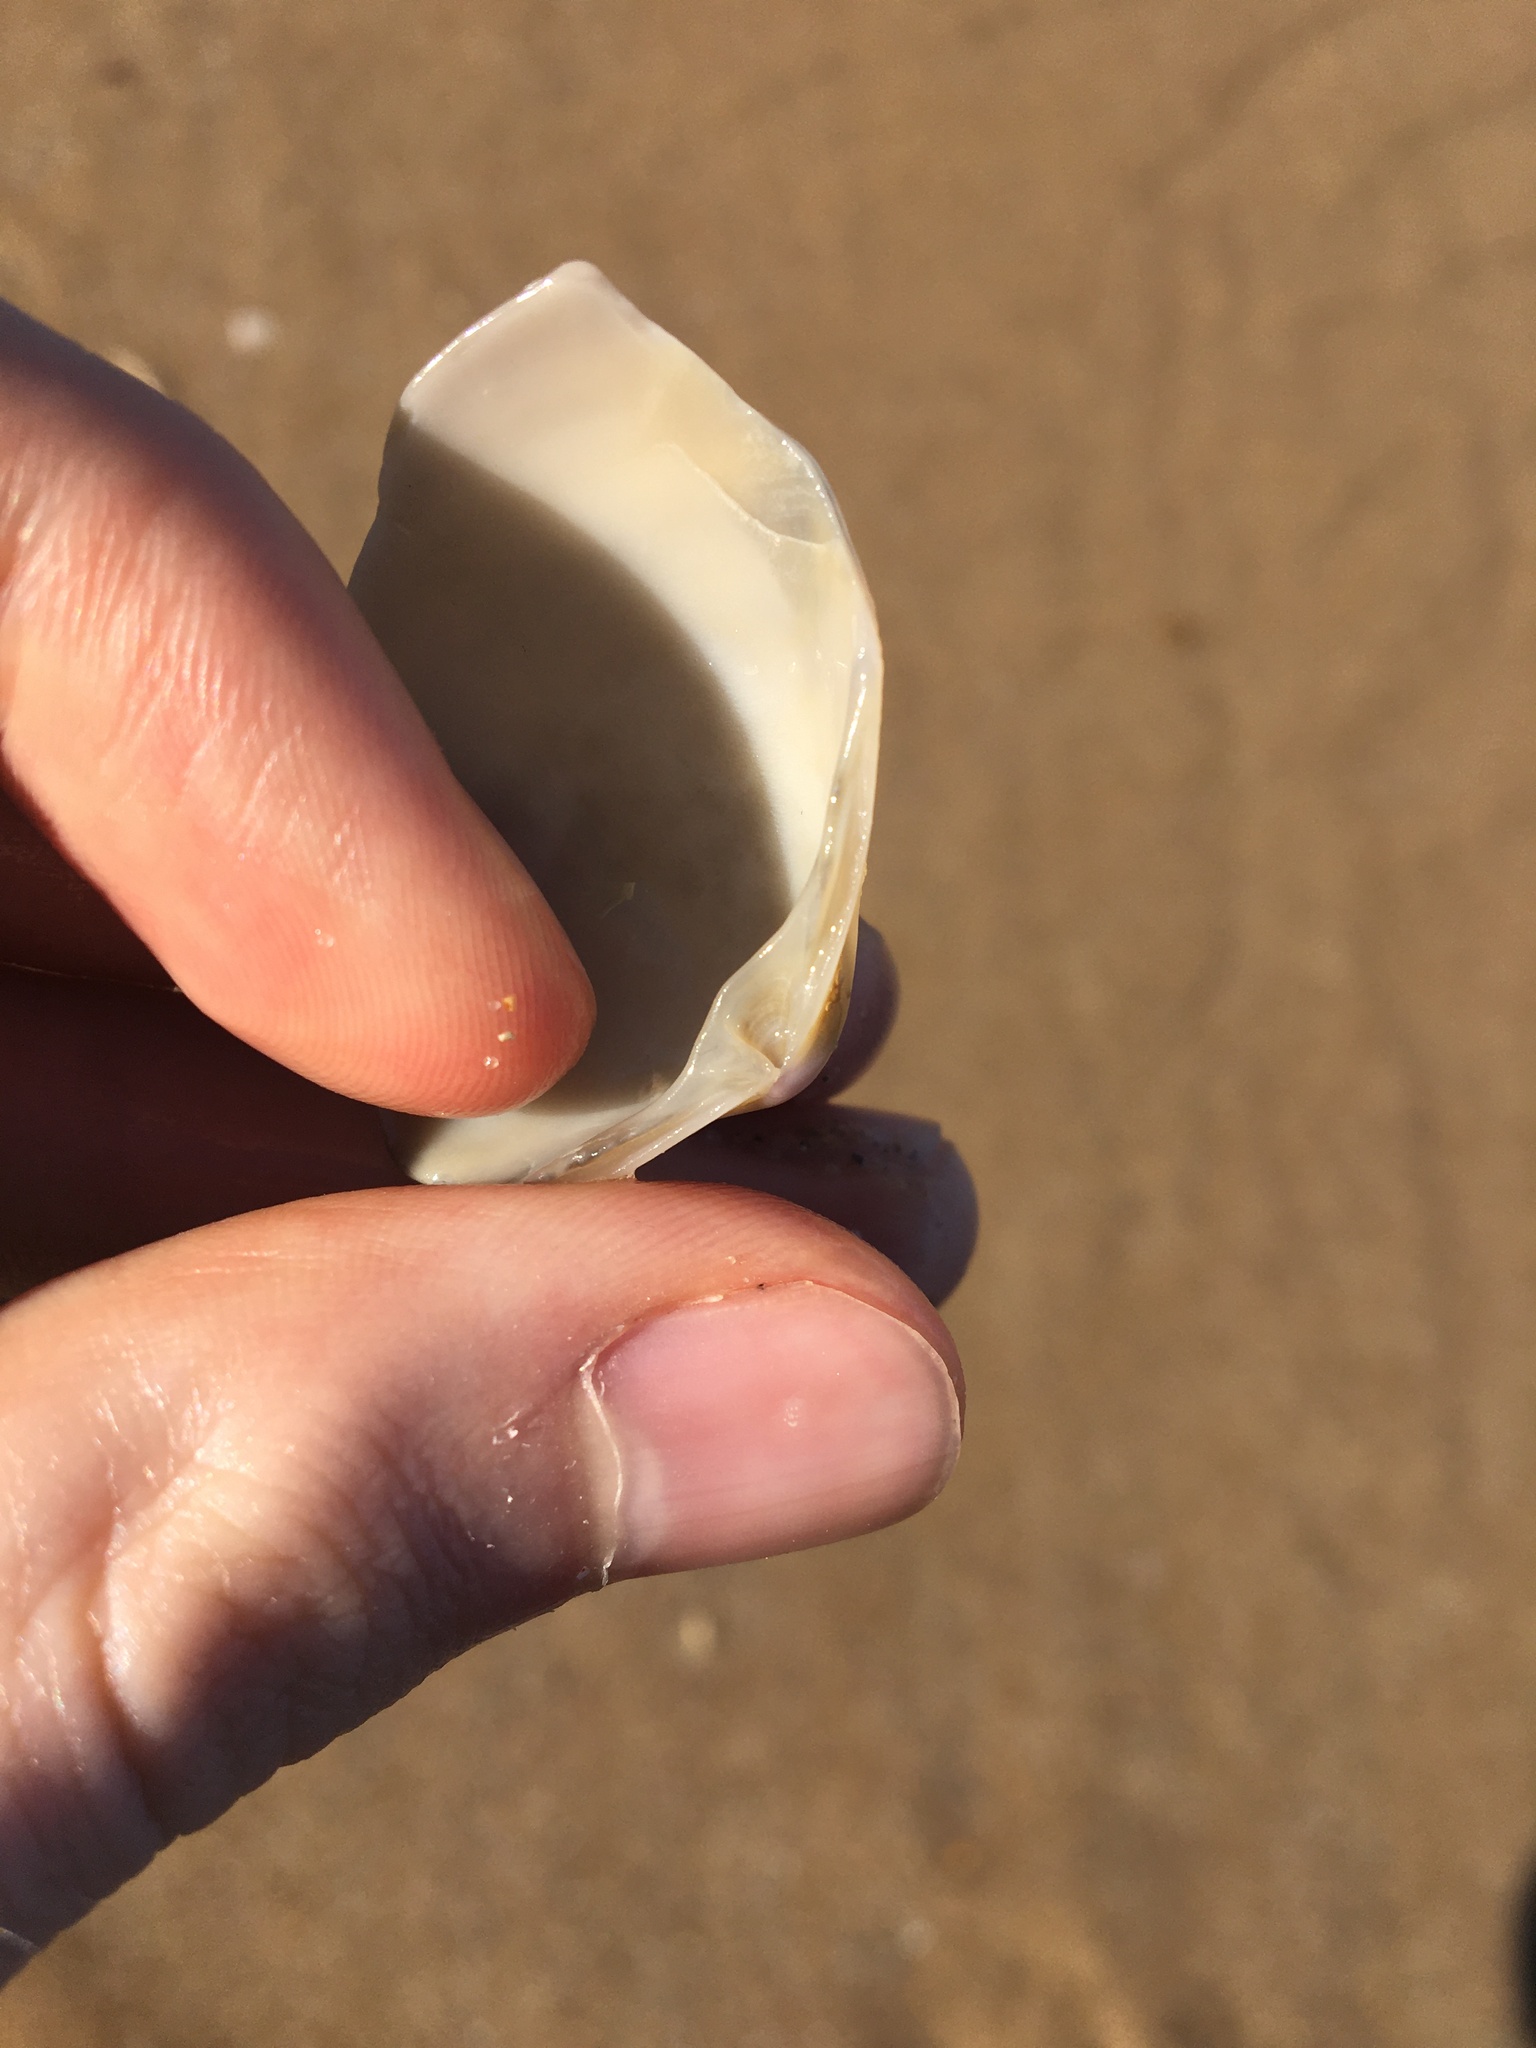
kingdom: Animalia
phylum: Mollusca
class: Bivalvia
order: Venerida
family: Mactridae
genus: Austromactra
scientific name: Austromactra rufescens
